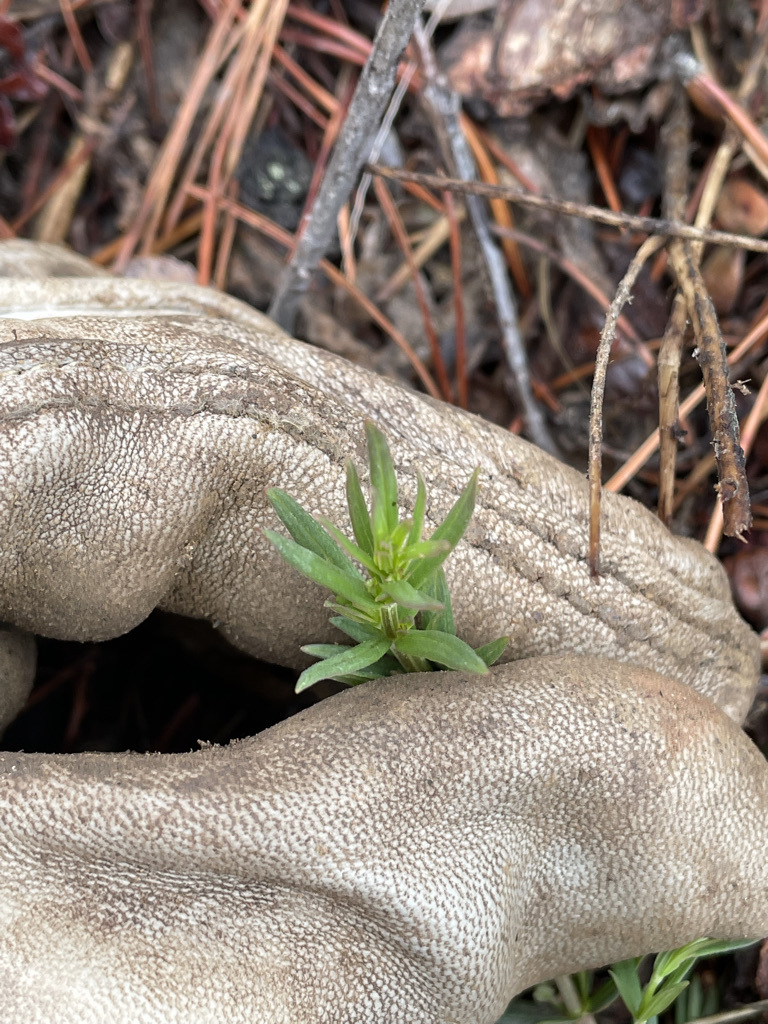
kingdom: Plantae
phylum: Tracheophyta
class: Magnoliopsida
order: Gentianales
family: Rubiaceae
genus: Galium
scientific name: Galium boreale
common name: Northern bedstraw
